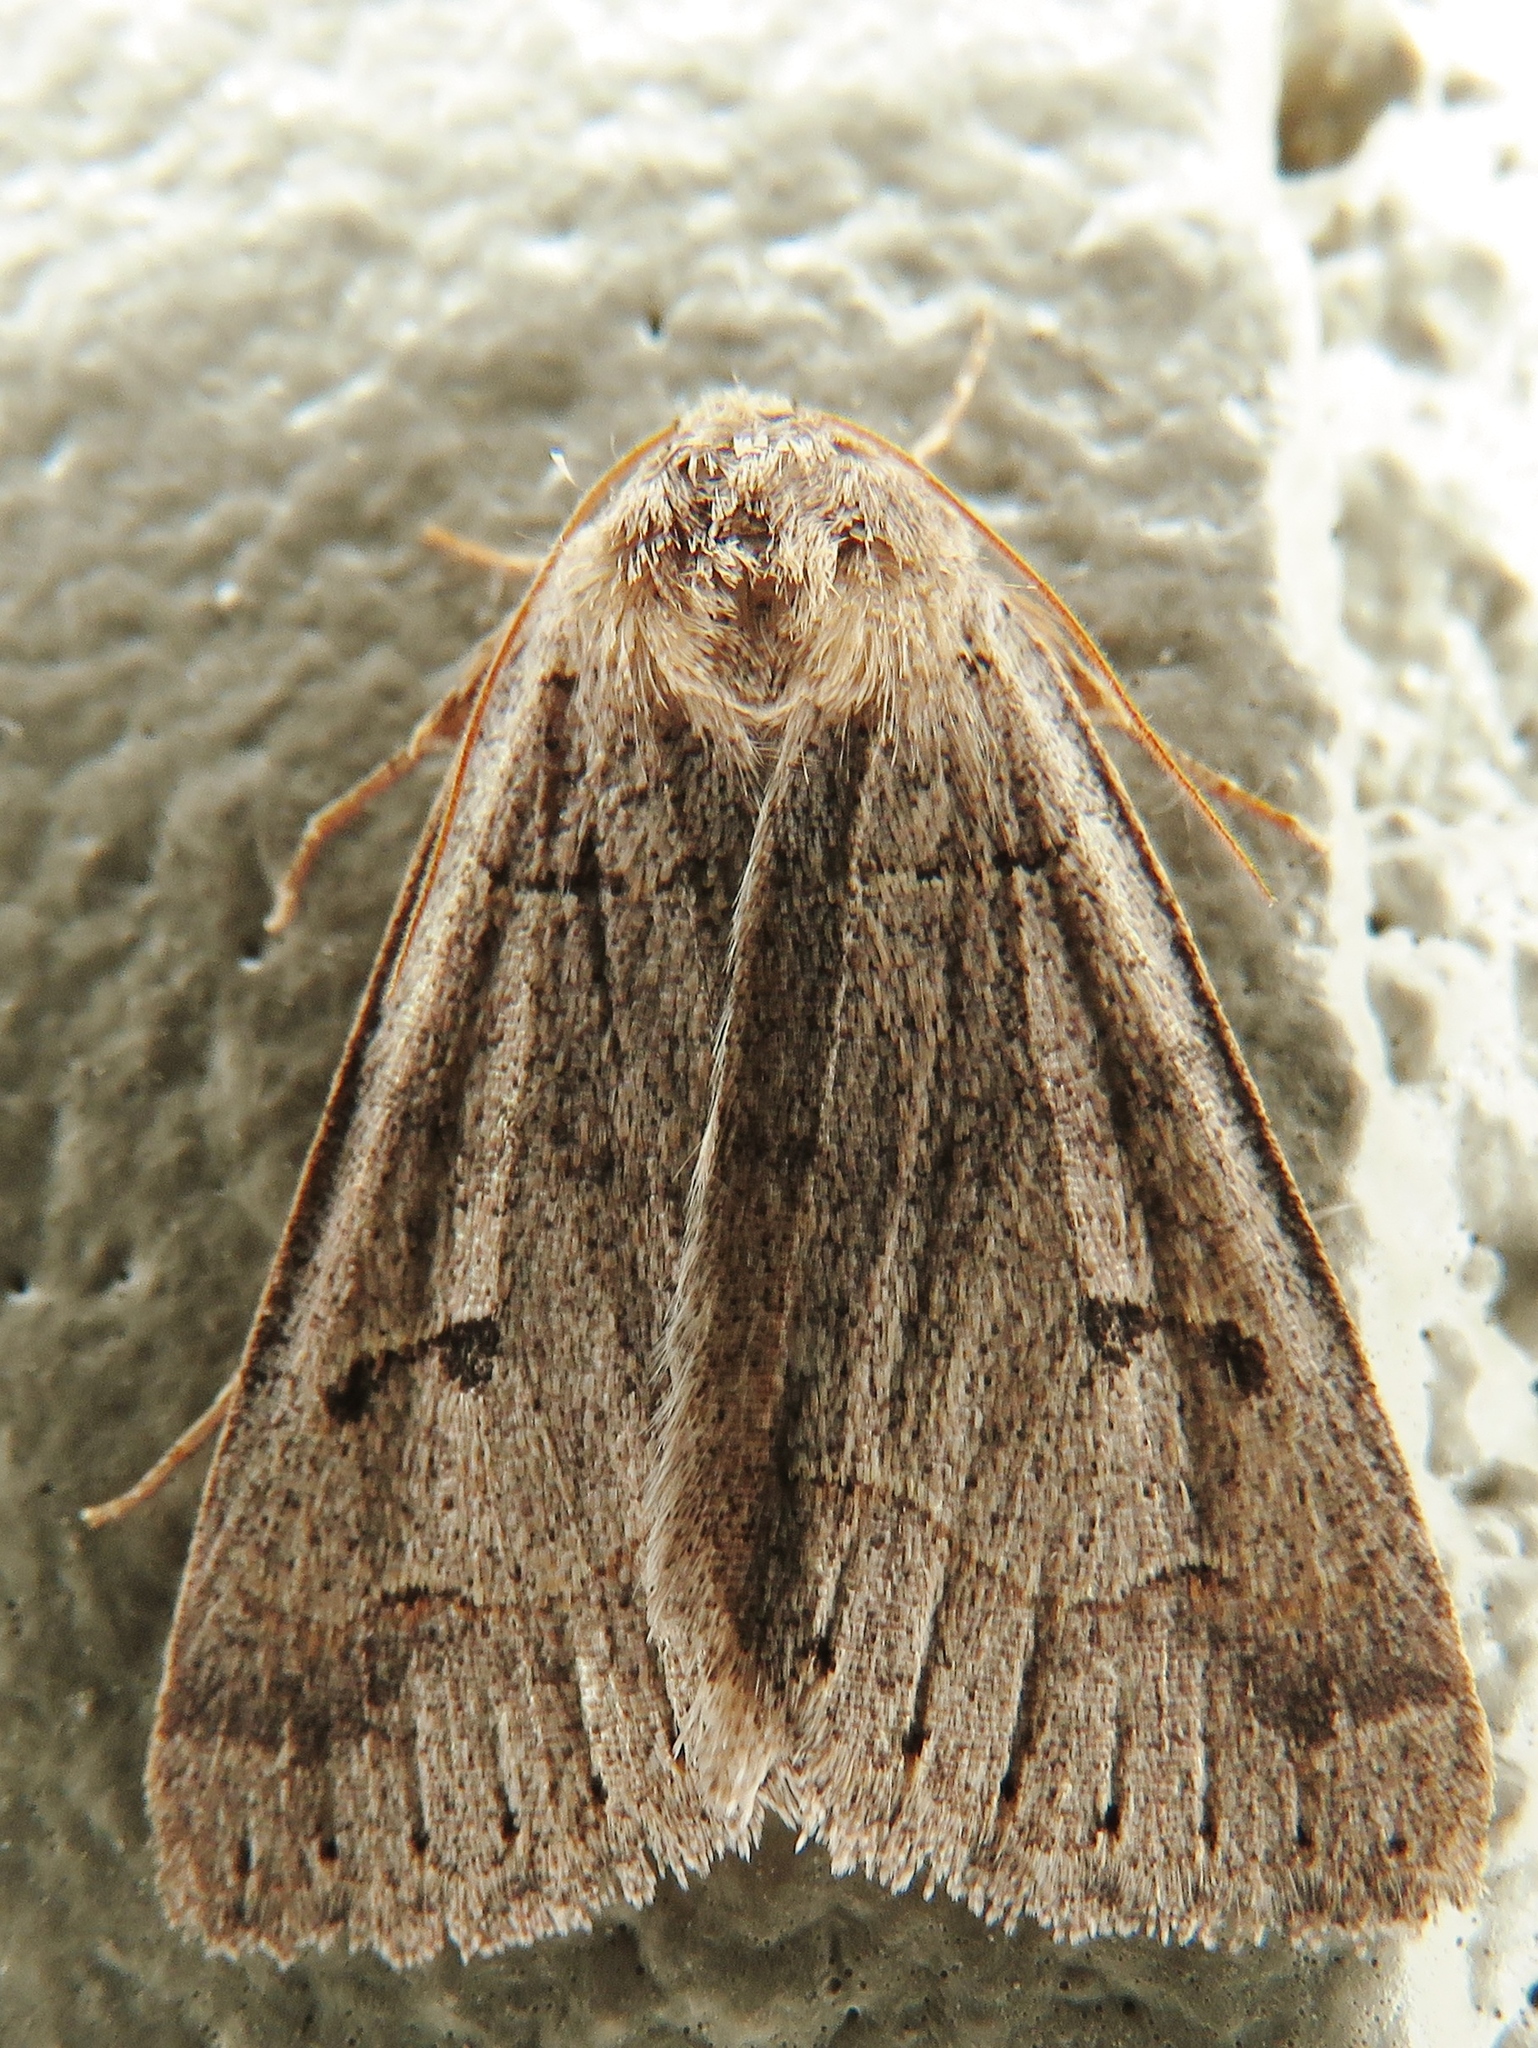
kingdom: Animalia
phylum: Arthropoda
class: Insecta
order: Lepidoptera
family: Erebidae
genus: Phoberia
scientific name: Phoberia atomaris
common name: Common oak moth
